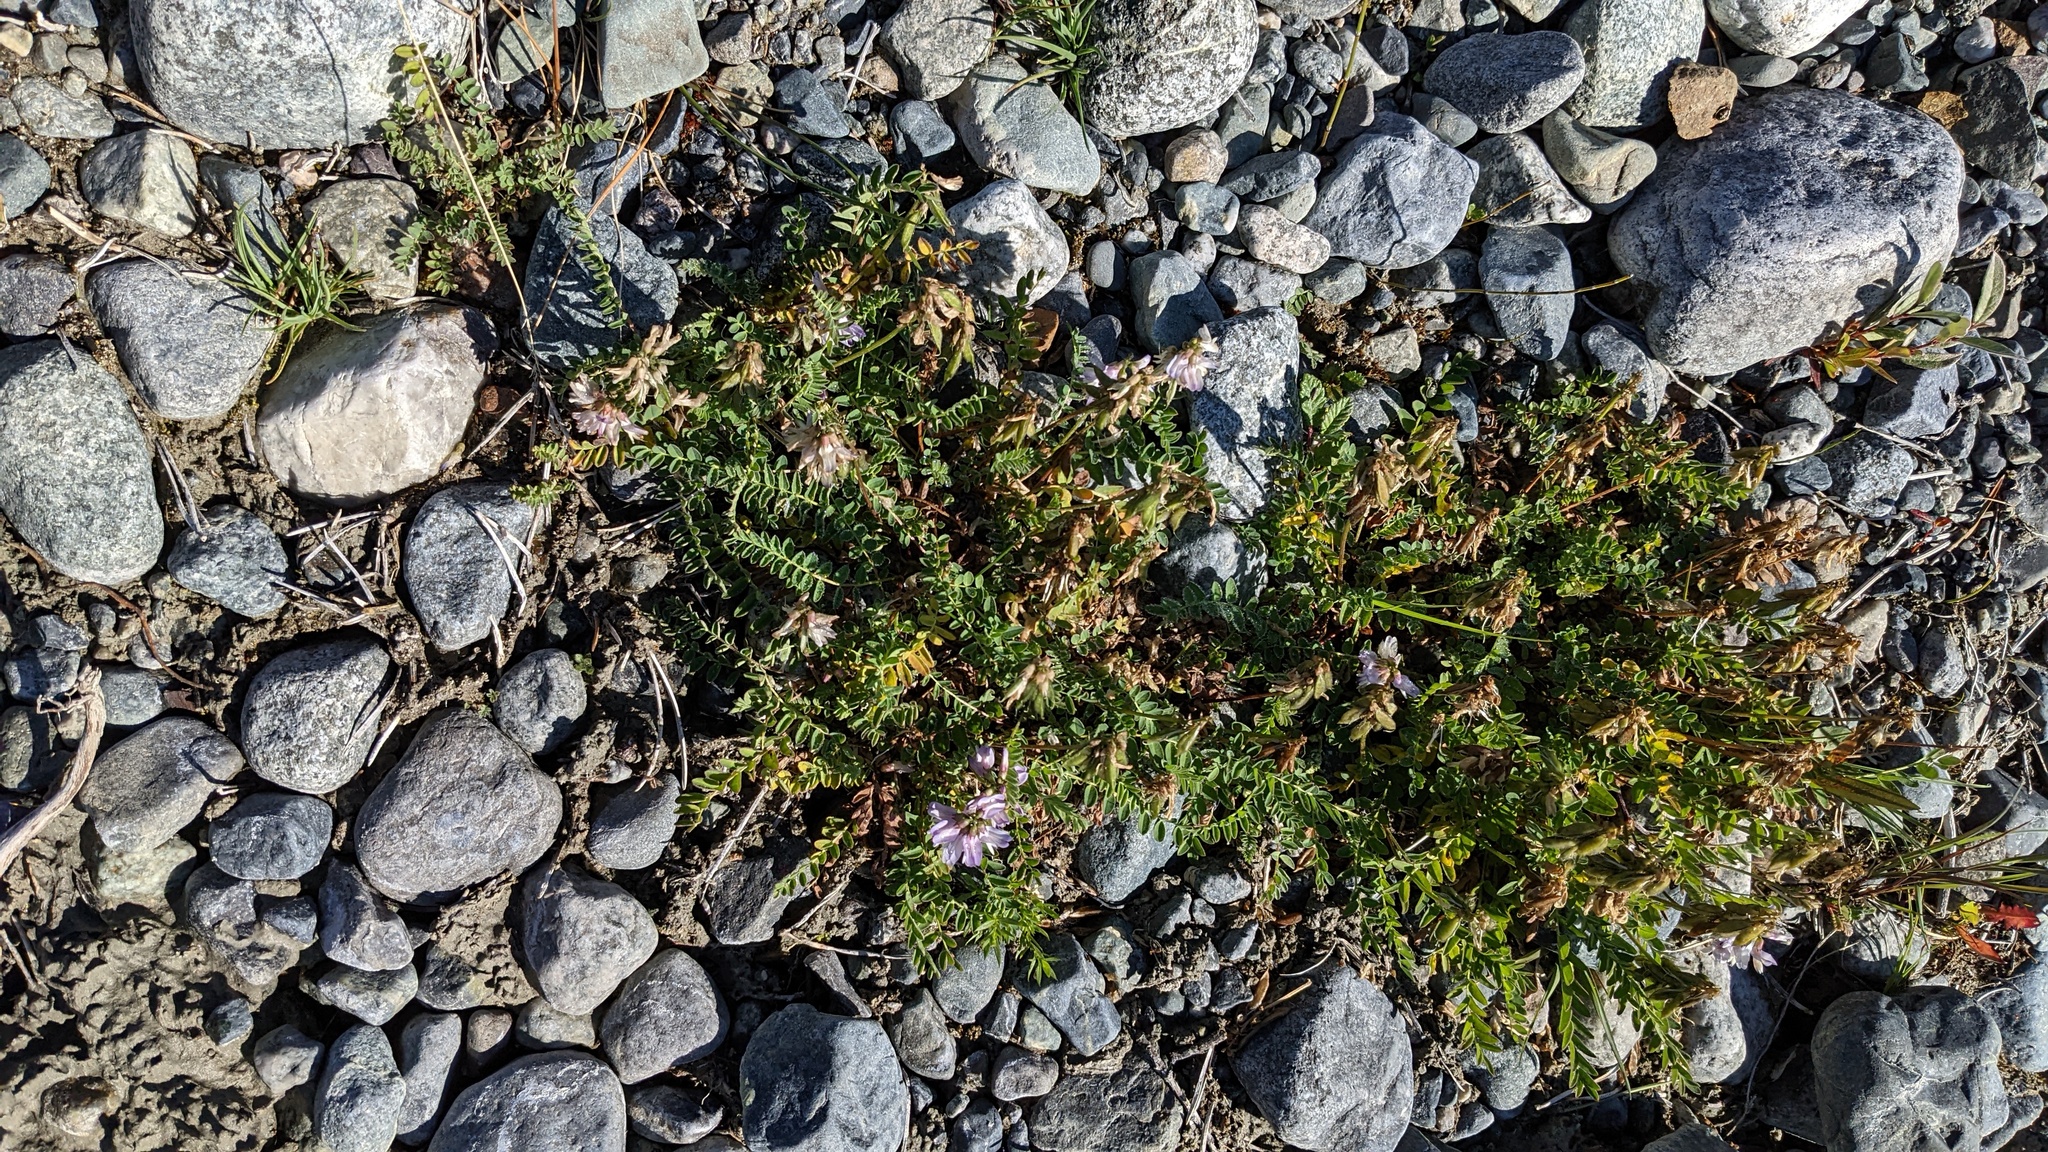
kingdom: Plantae
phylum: Tracheophyta
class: Magnoliopsida
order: Fabales
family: Fabaceae
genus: Astragalus
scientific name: Astragalus alpinus
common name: Alpine milk-vetch
